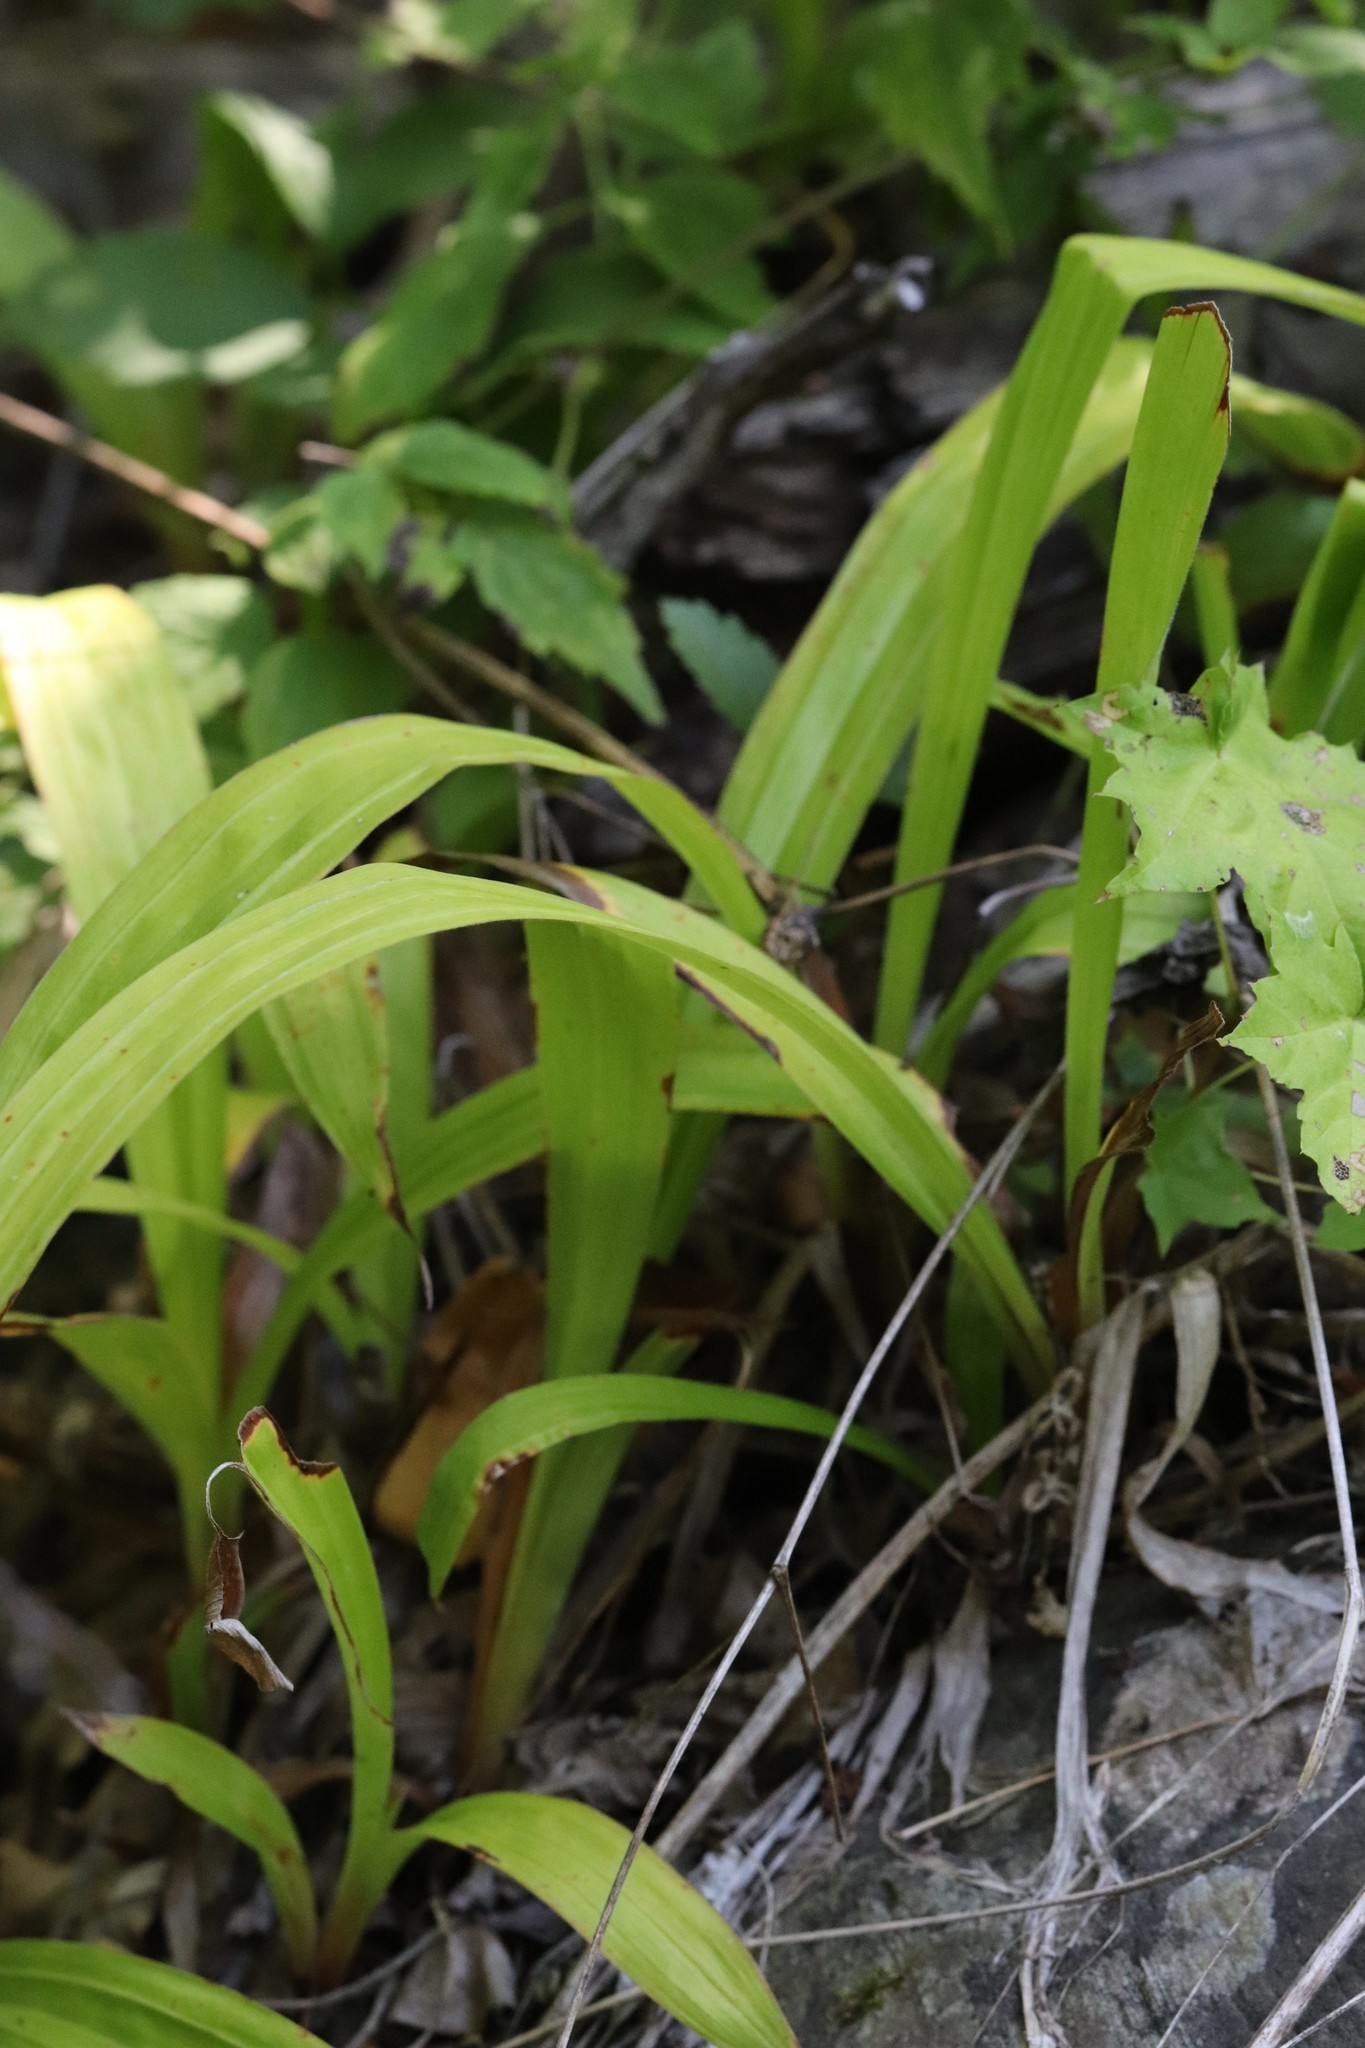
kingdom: Plantae
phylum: Tracheophyta
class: Liliopsida
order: Poales
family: Cyperaceae
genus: Carex
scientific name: Carex siderosticta
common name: Broadleaf sedge
